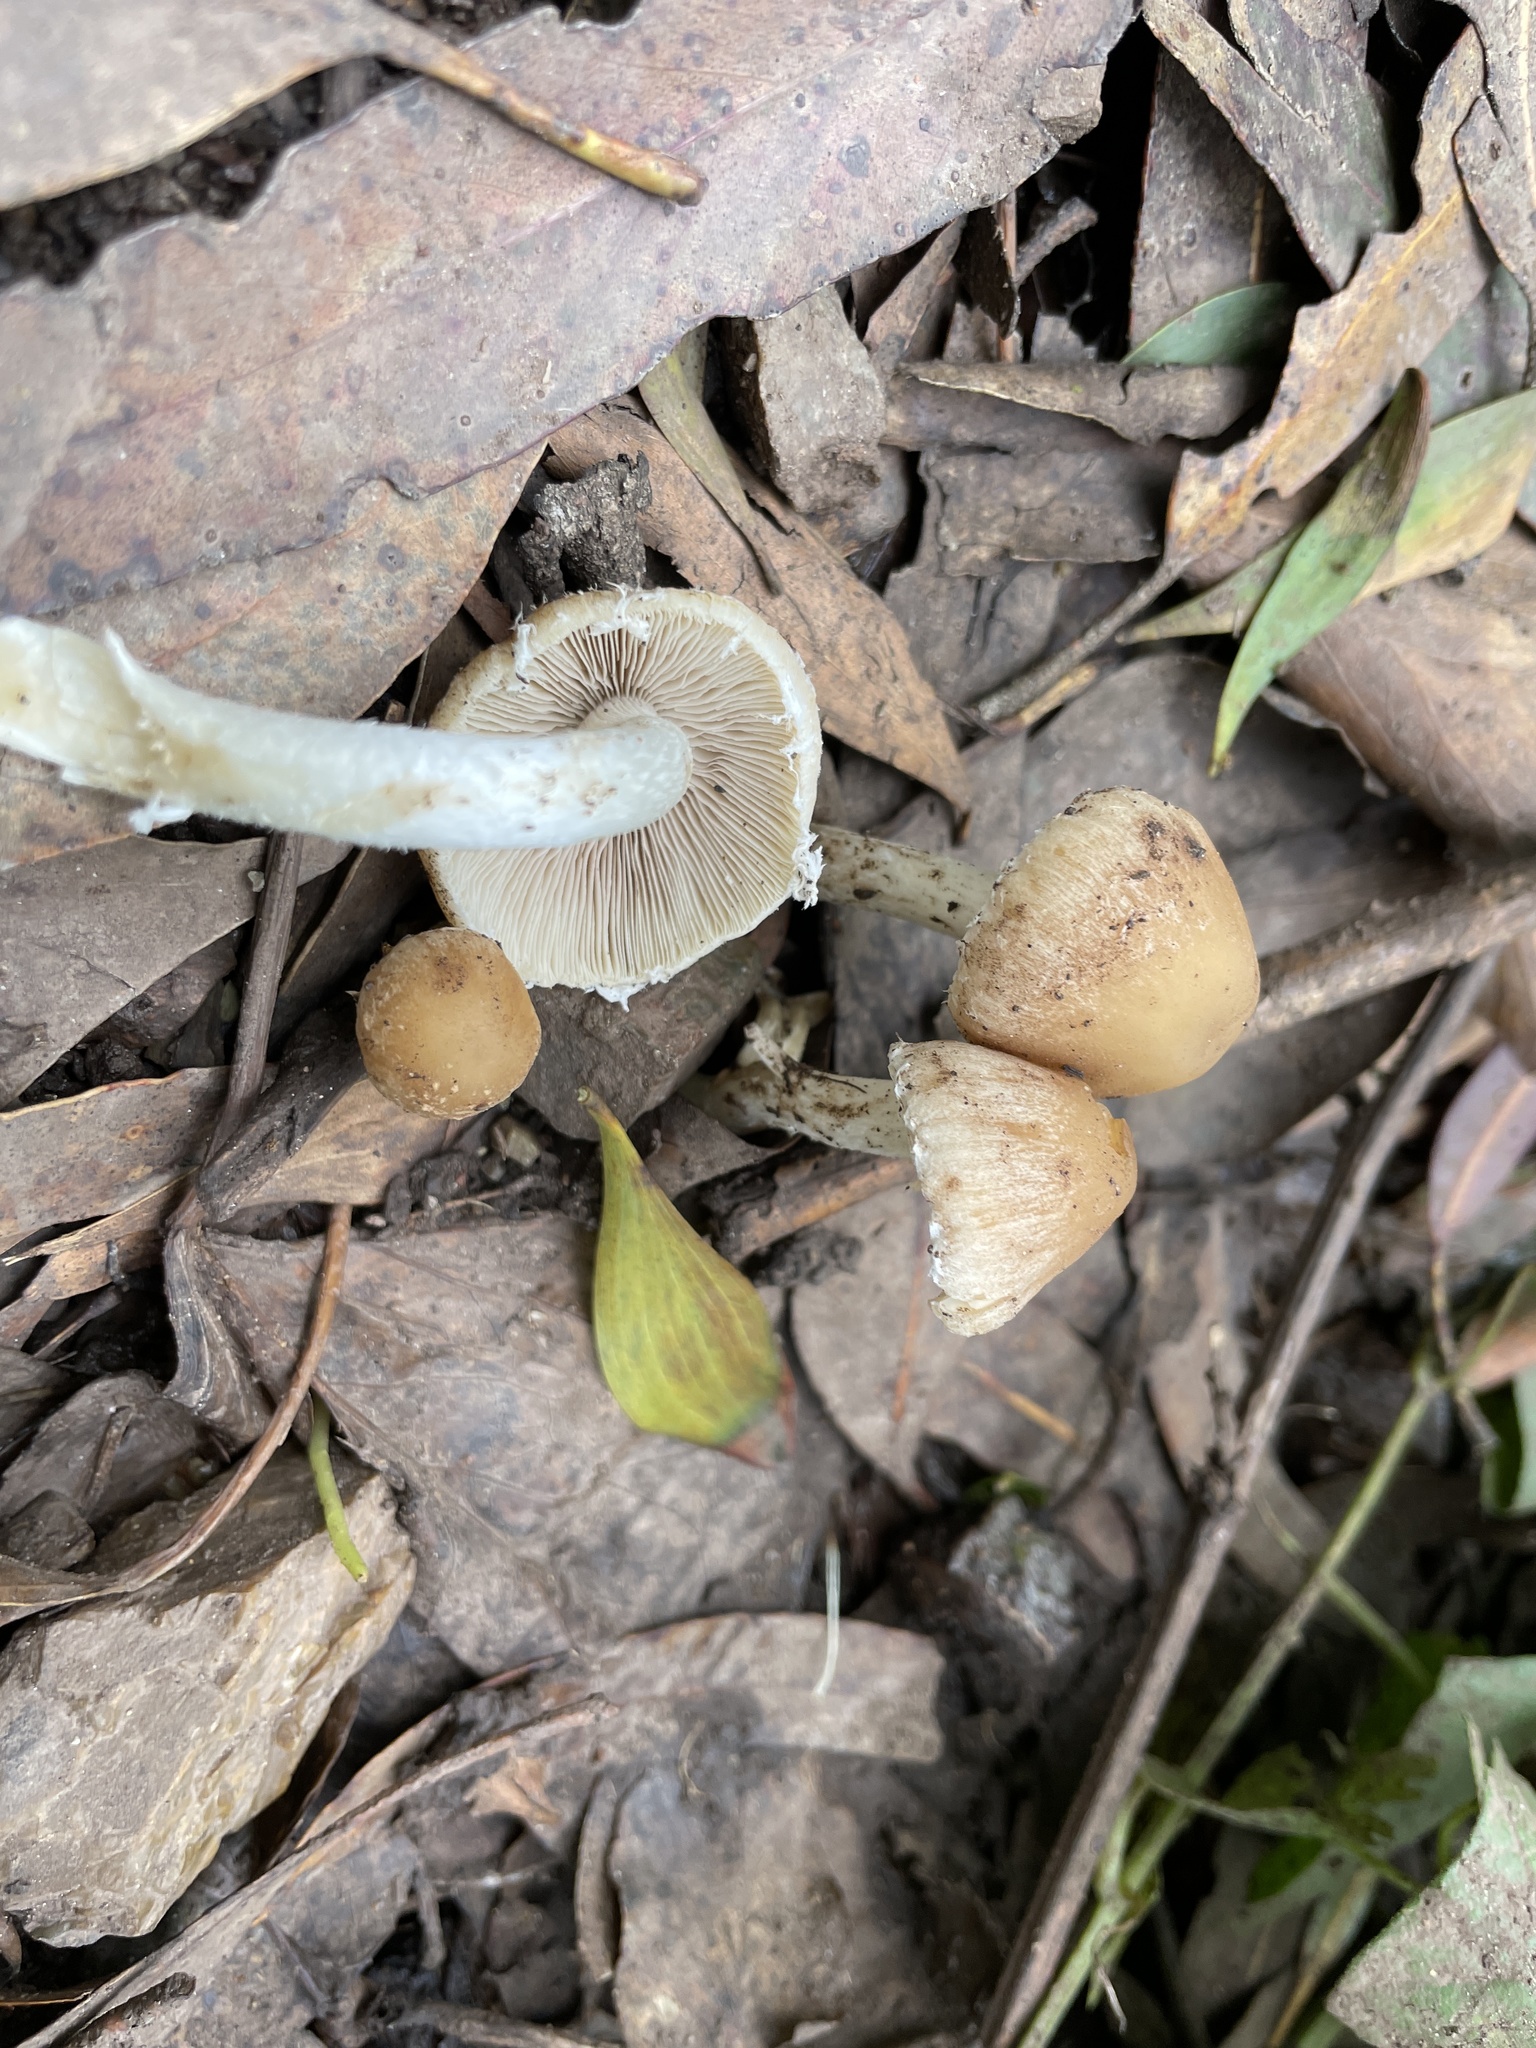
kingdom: Fungi
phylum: Basidiomycota
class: Agaricomycetes
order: Agaricales
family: Psathyrellaceae
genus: Candolleomyces
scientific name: Candolleomyces candolleanus
